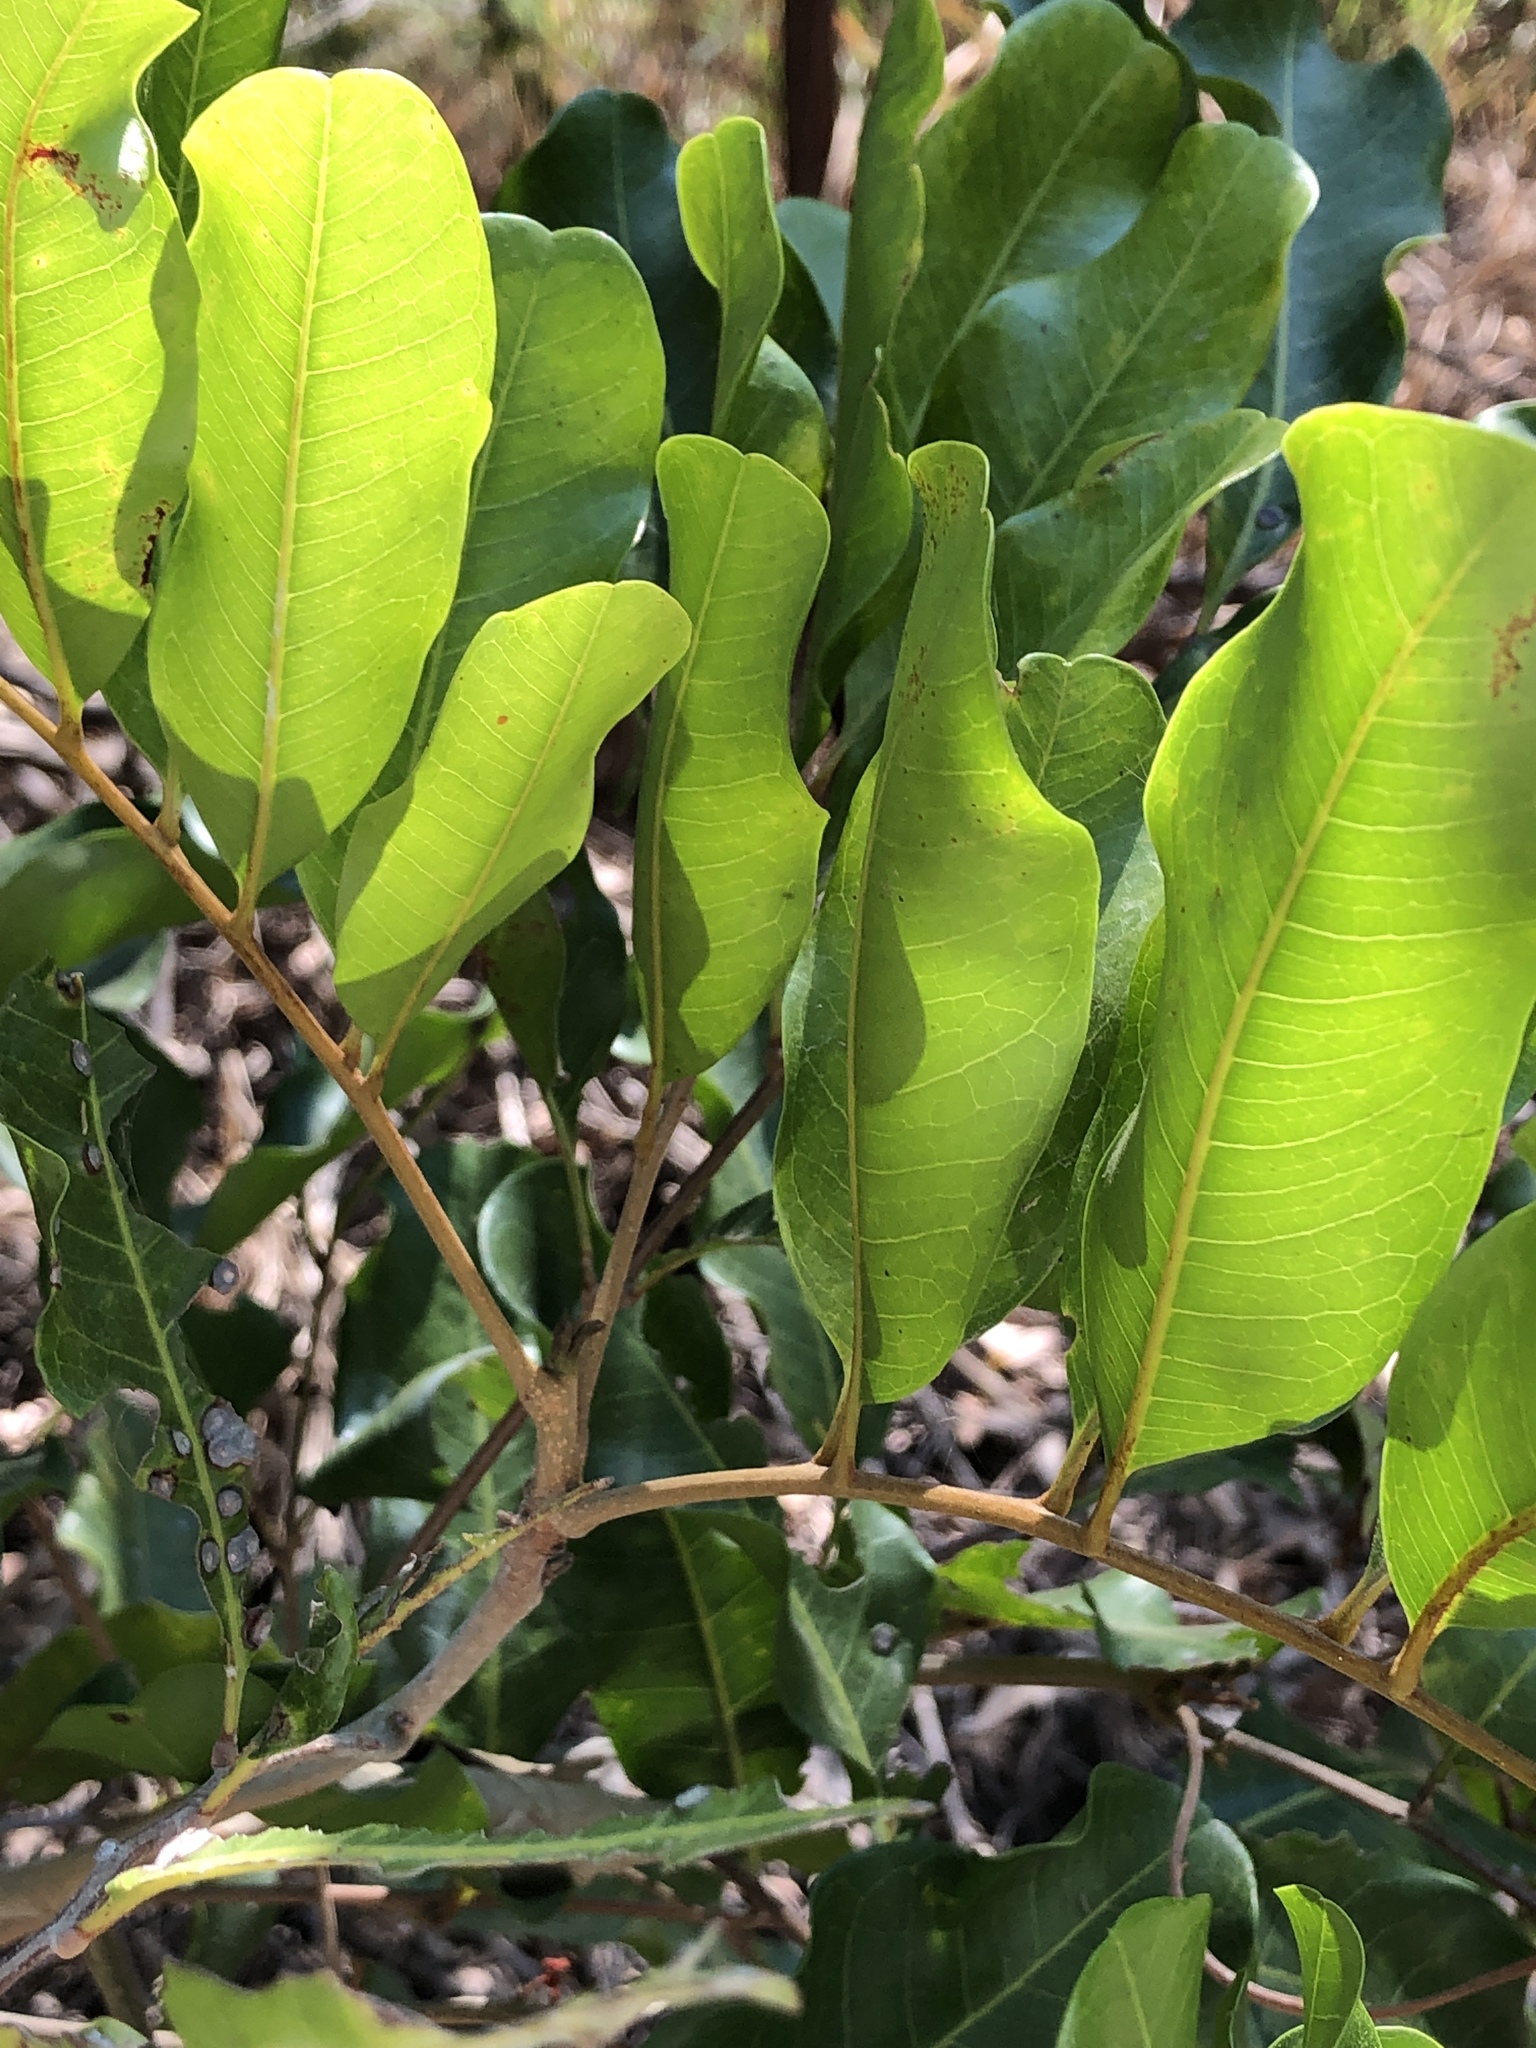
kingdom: Plantae
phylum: Tracheophyta
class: Magnoliopsida
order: Sapindales
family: Sapindaceae
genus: Cupaniopsis
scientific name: Cupaniopsis anacardioides
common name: Carrotwood
